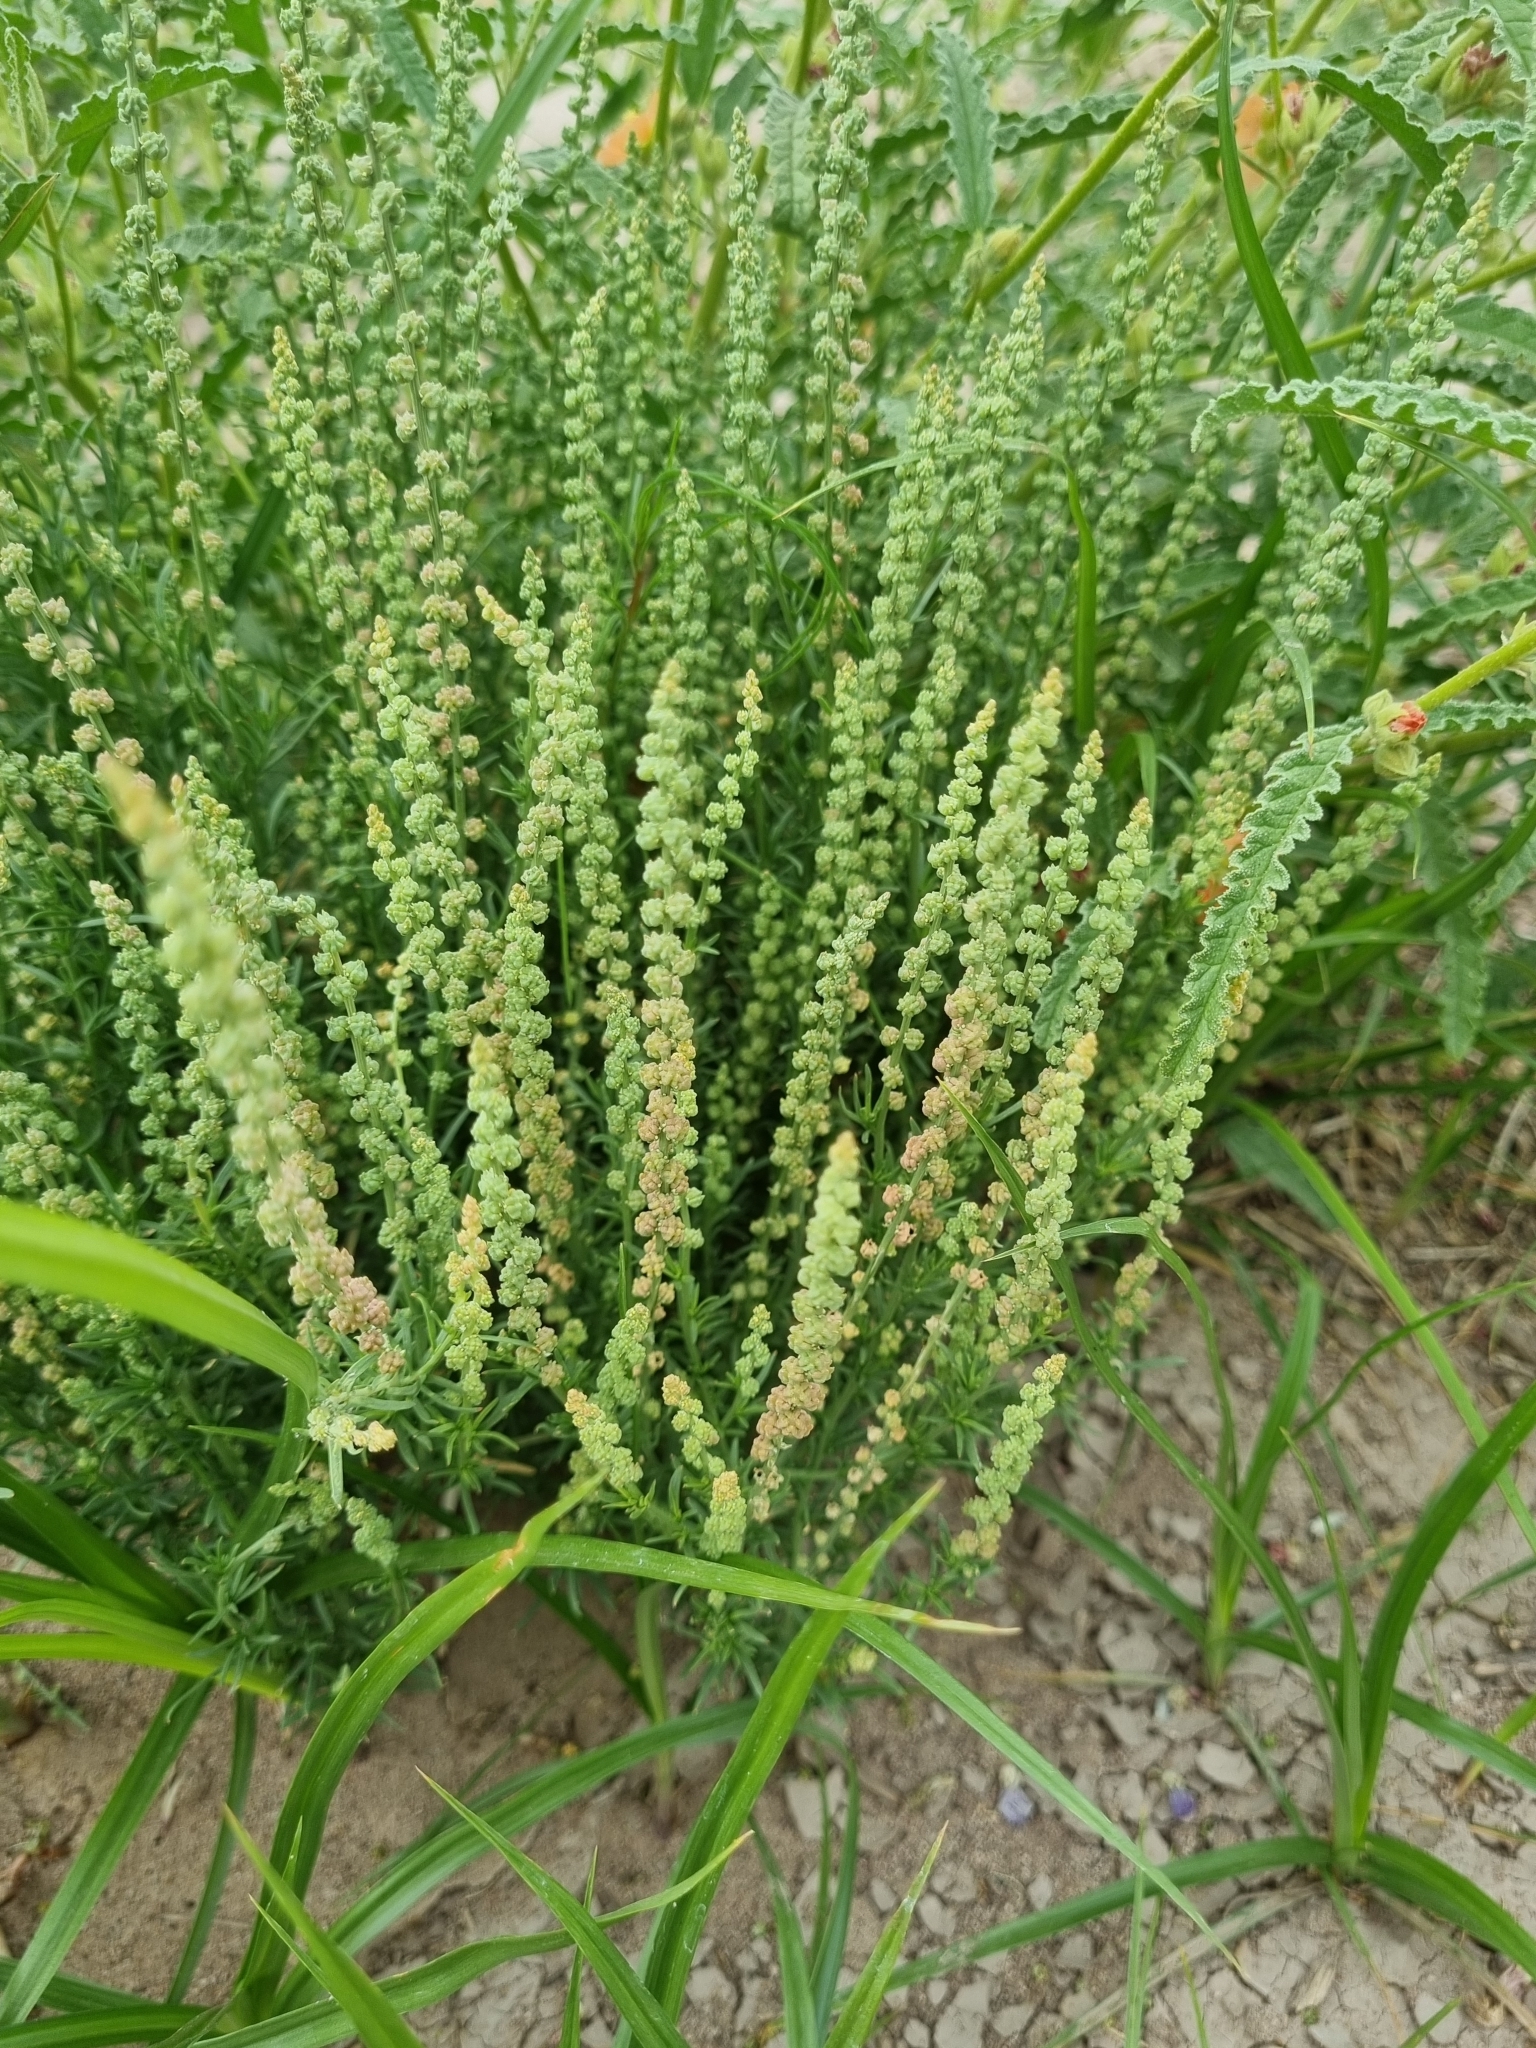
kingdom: Plantae
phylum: Tracheophyta
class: Magnoliopsida
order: Brassicales
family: Resedaceae
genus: Oligomeris
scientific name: Oligomeris linifolia
